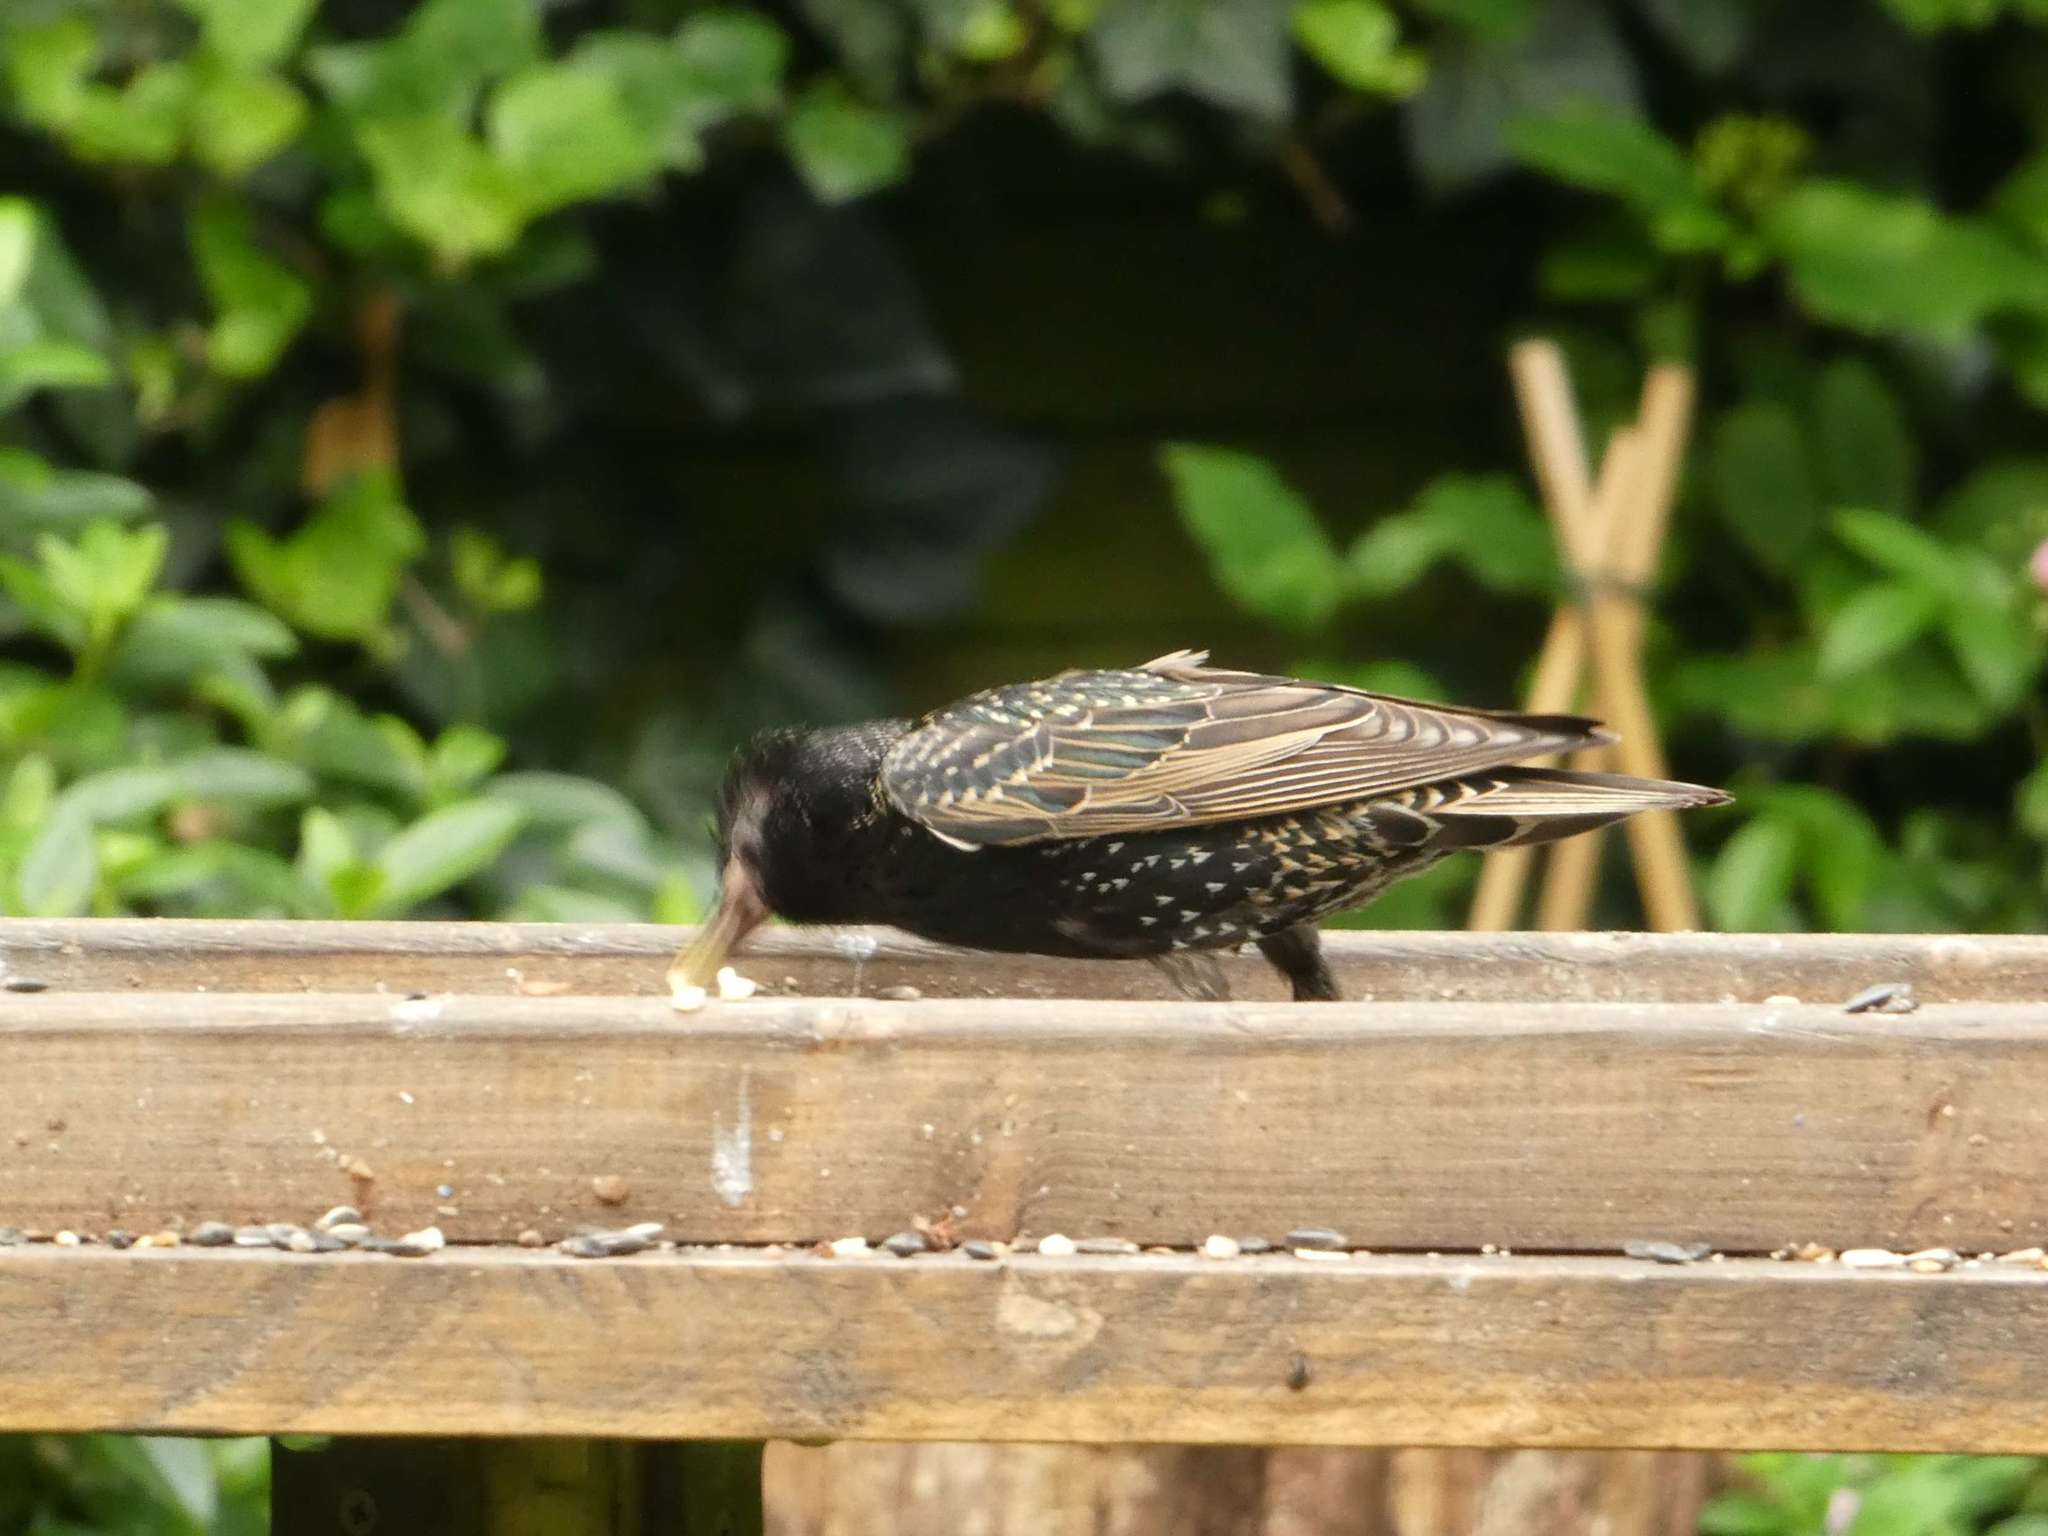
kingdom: Animalia
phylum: Chordata
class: Aves
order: Passeriformes
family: Sturnidae
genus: Sturnus
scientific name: Sturnus vulgaris
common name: Common starling
